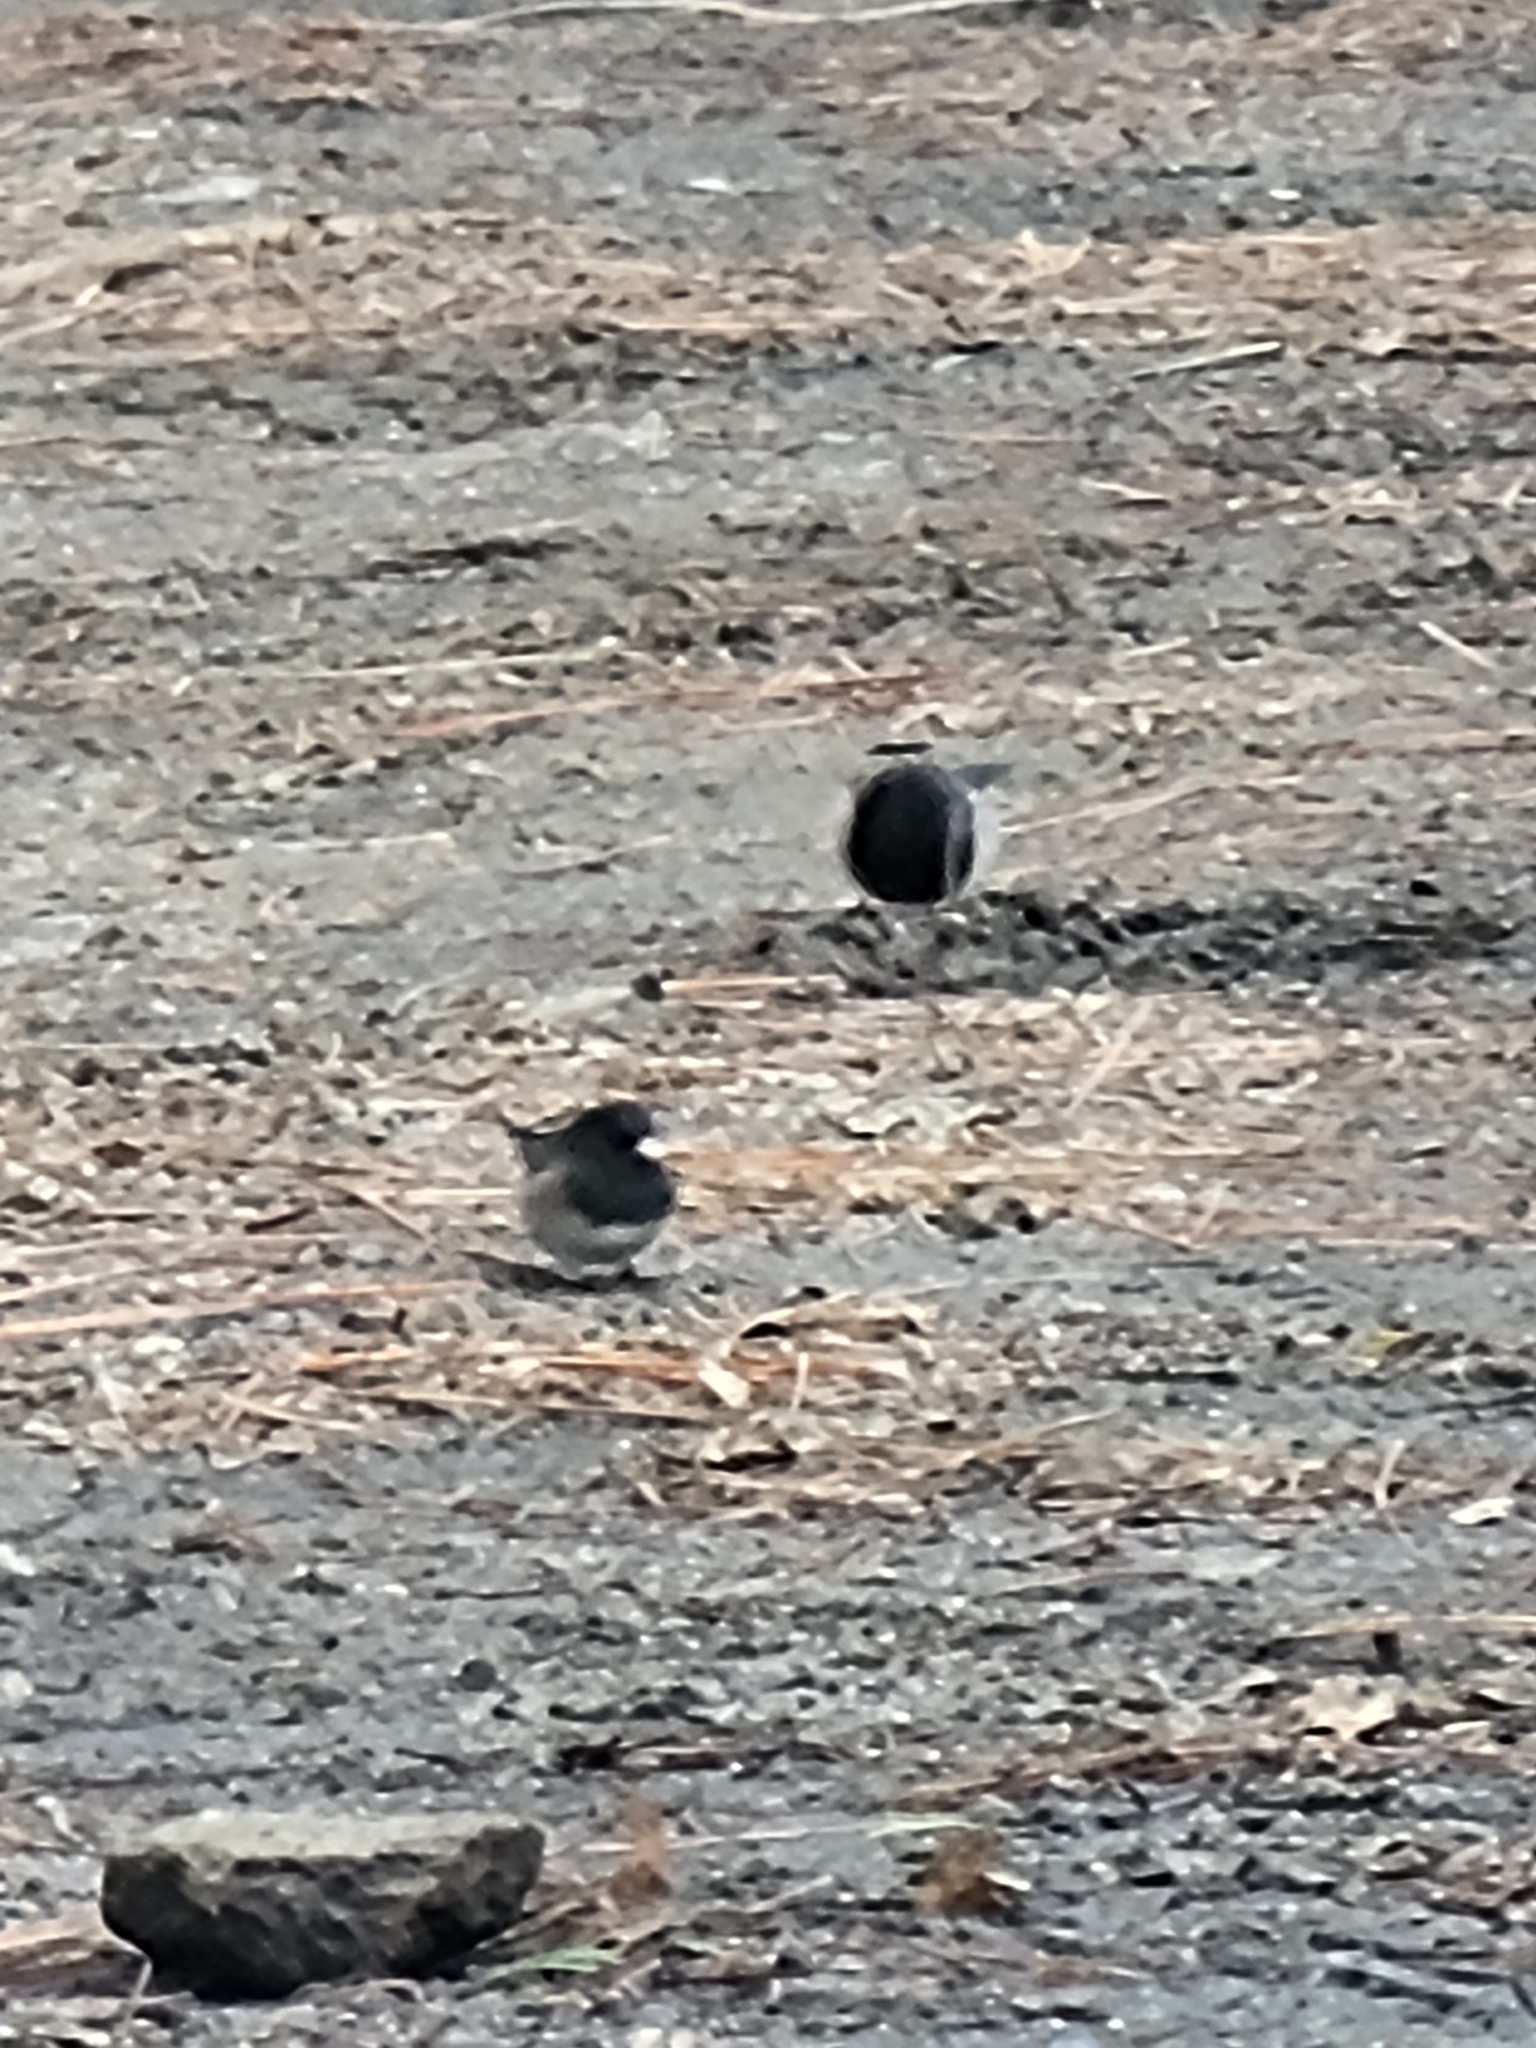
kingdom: Animalia
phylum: Chordata
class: Aves
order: Passeriformes
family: Passerellidae
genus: Junco
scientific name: Junco hyemalis
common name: Dark-eyed junco
